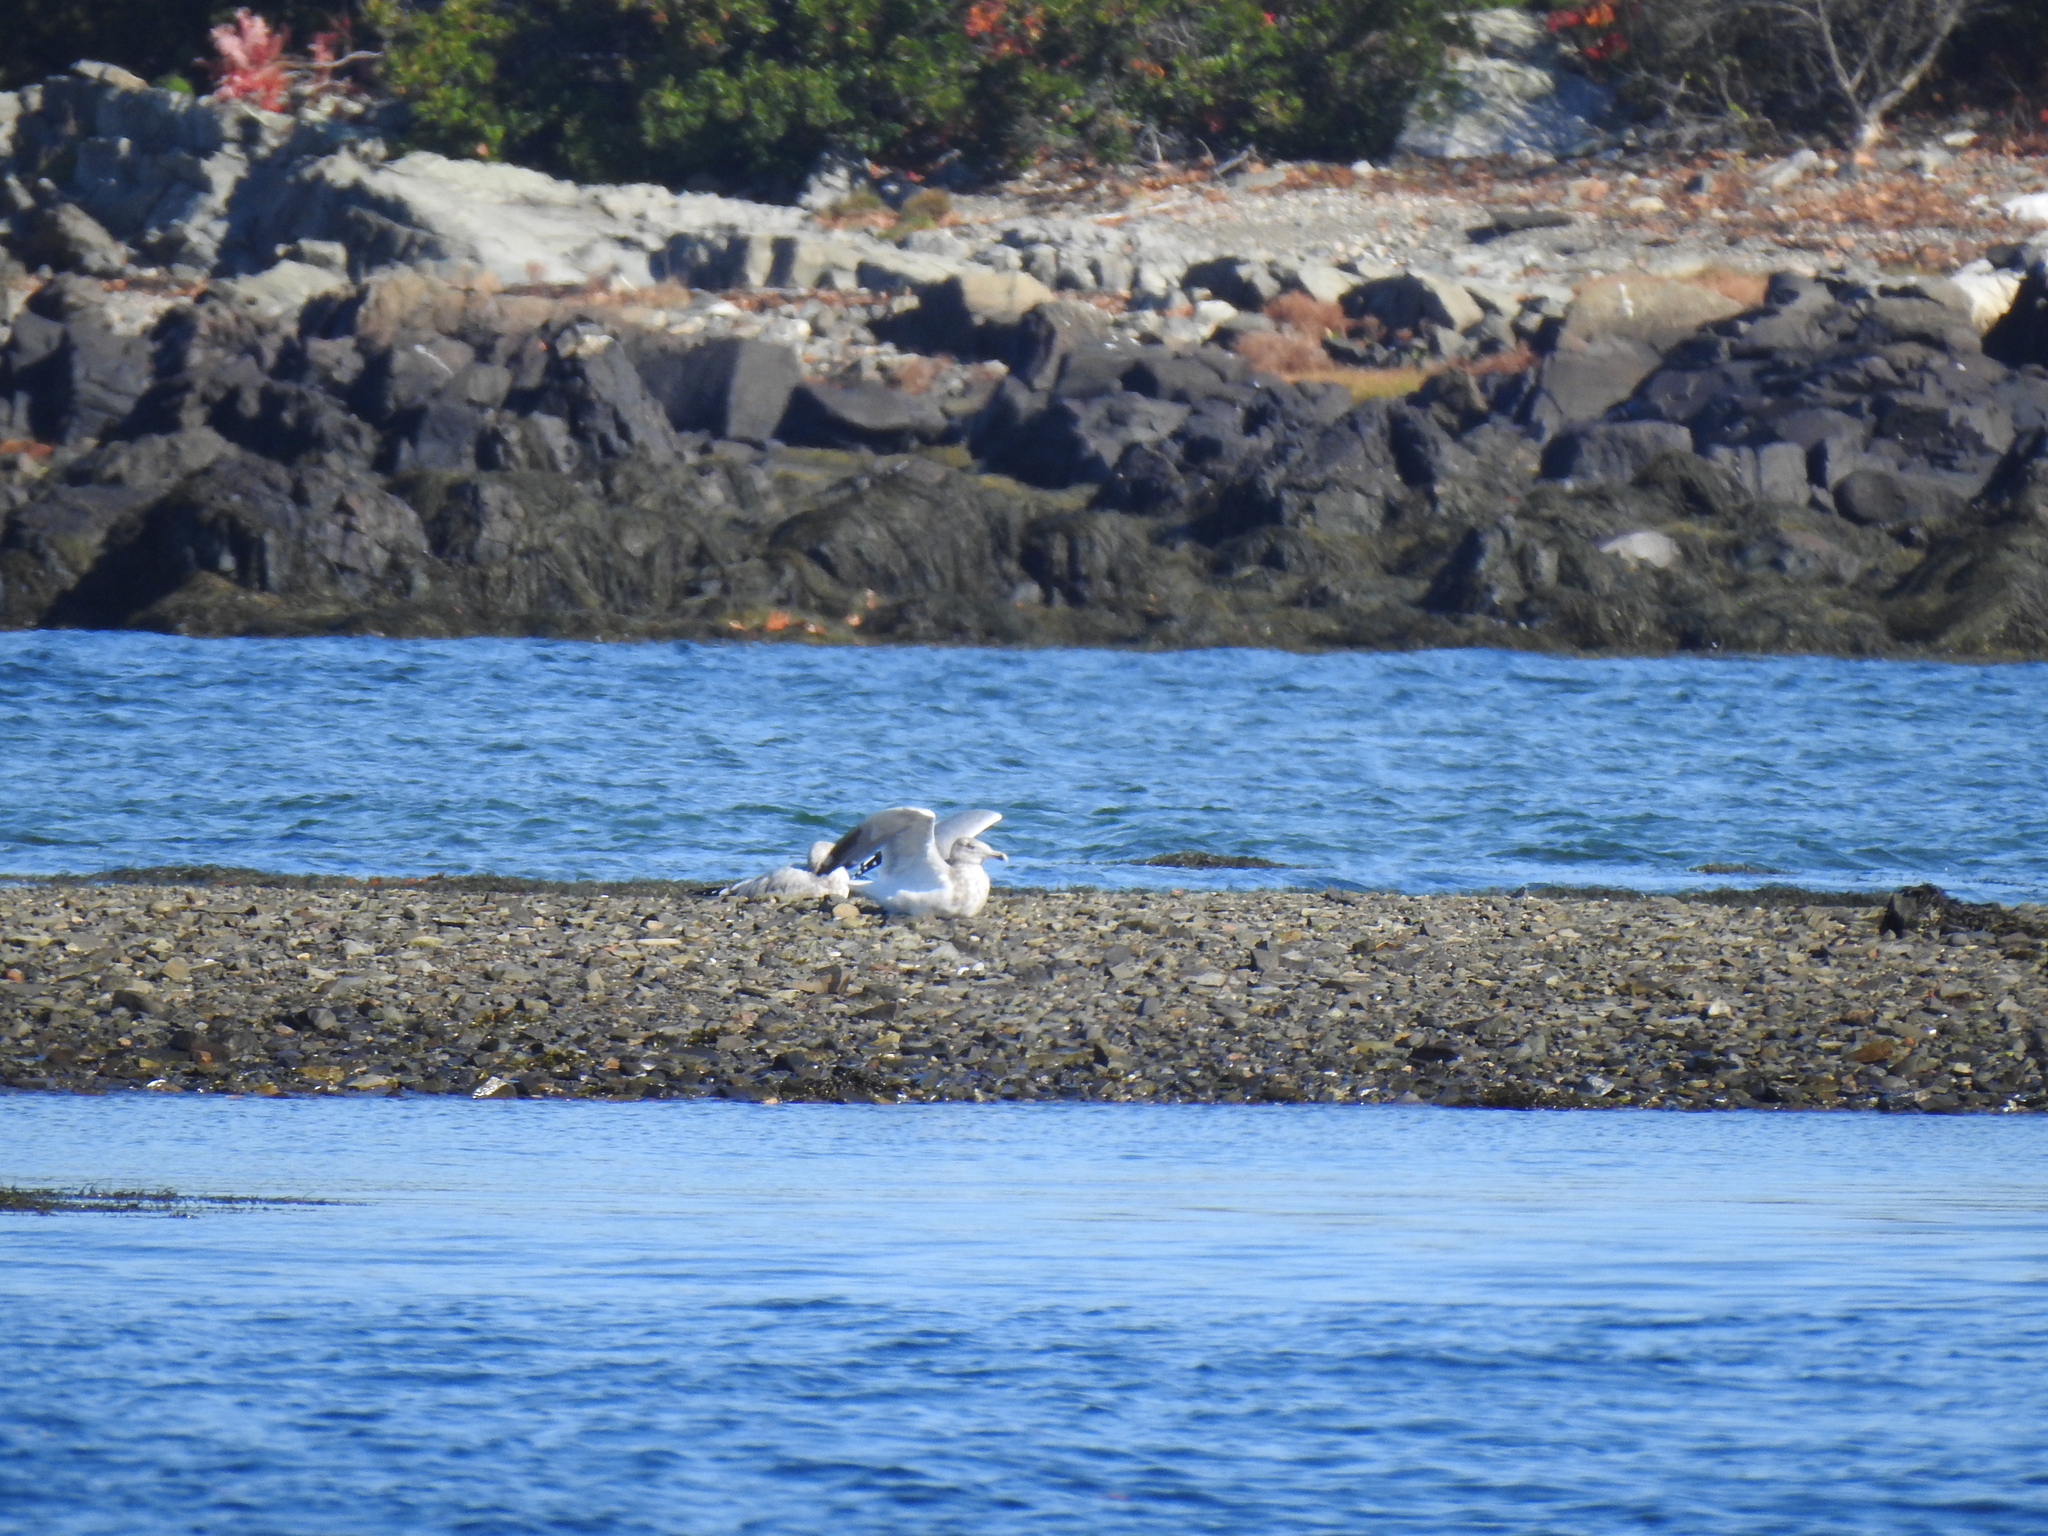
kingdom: Animalia
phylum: Chordata
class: Aves
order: Charadriiformes
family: Laridae
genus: Larus
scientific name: Larus argentatus
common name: Herring gull
